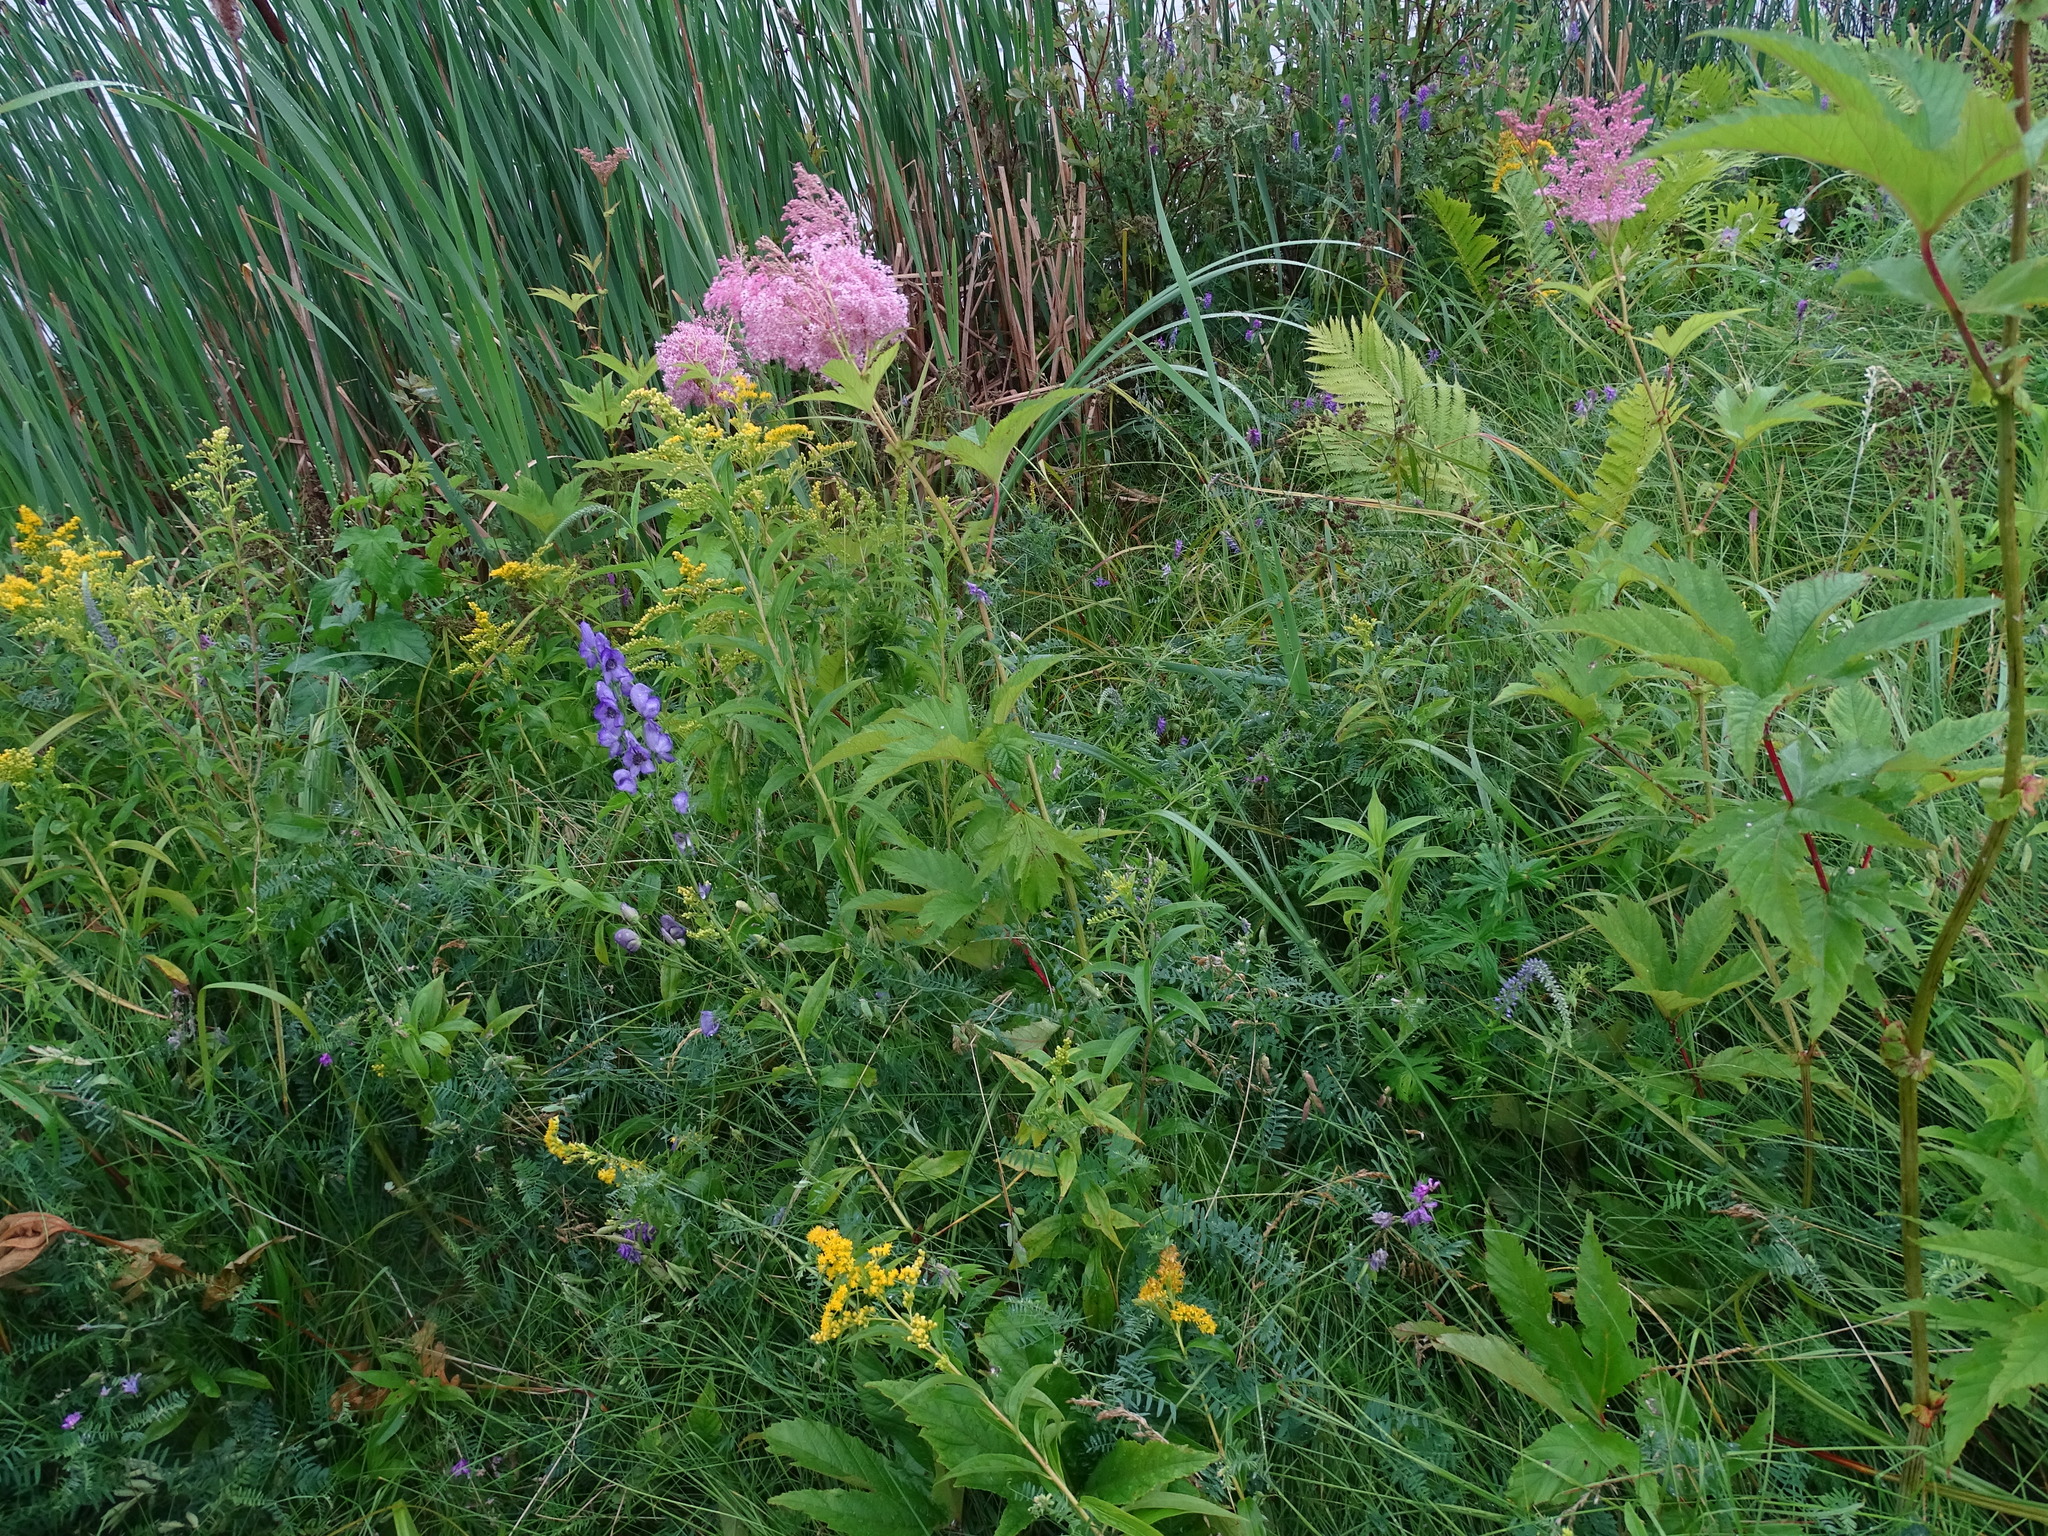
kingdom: Plantae
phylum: Tracheophyta
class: Magnoliopsida
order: Rosales
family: Rosaceae
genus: Filipendula
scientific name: Filipendula rubra
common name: Queen-of-the-prairie
